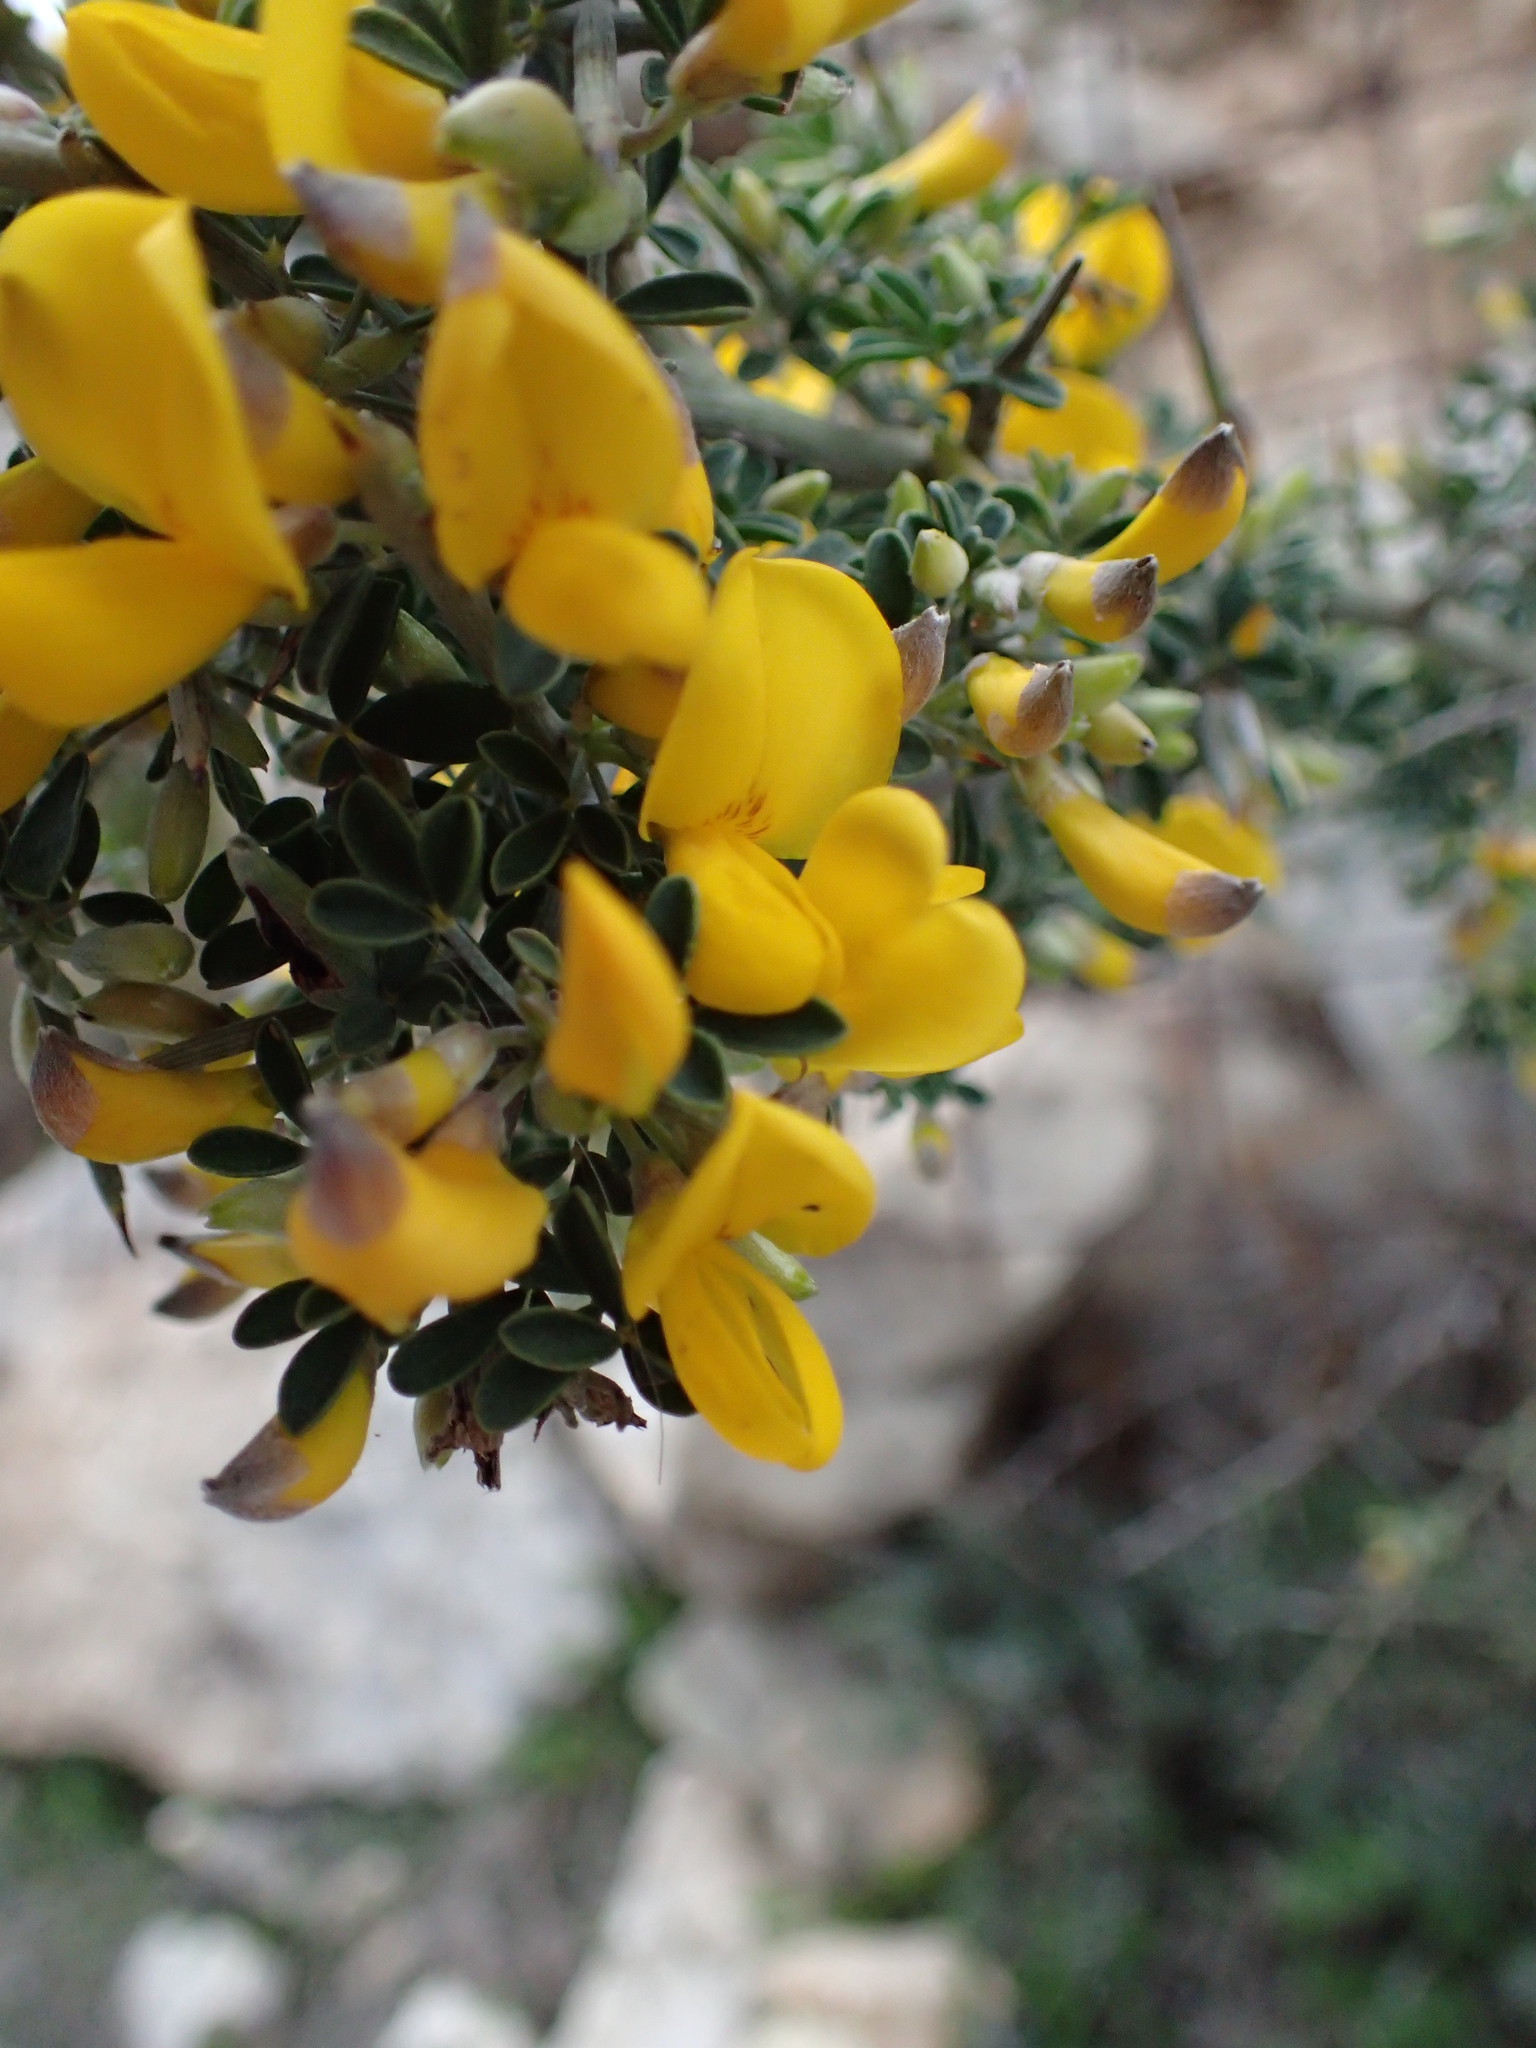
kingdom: Plantae
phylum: Tracheophyta
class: Magnoliopsida
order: Fabales
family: Fabaceae
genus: Calicotome
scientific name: Calicotome villosa
